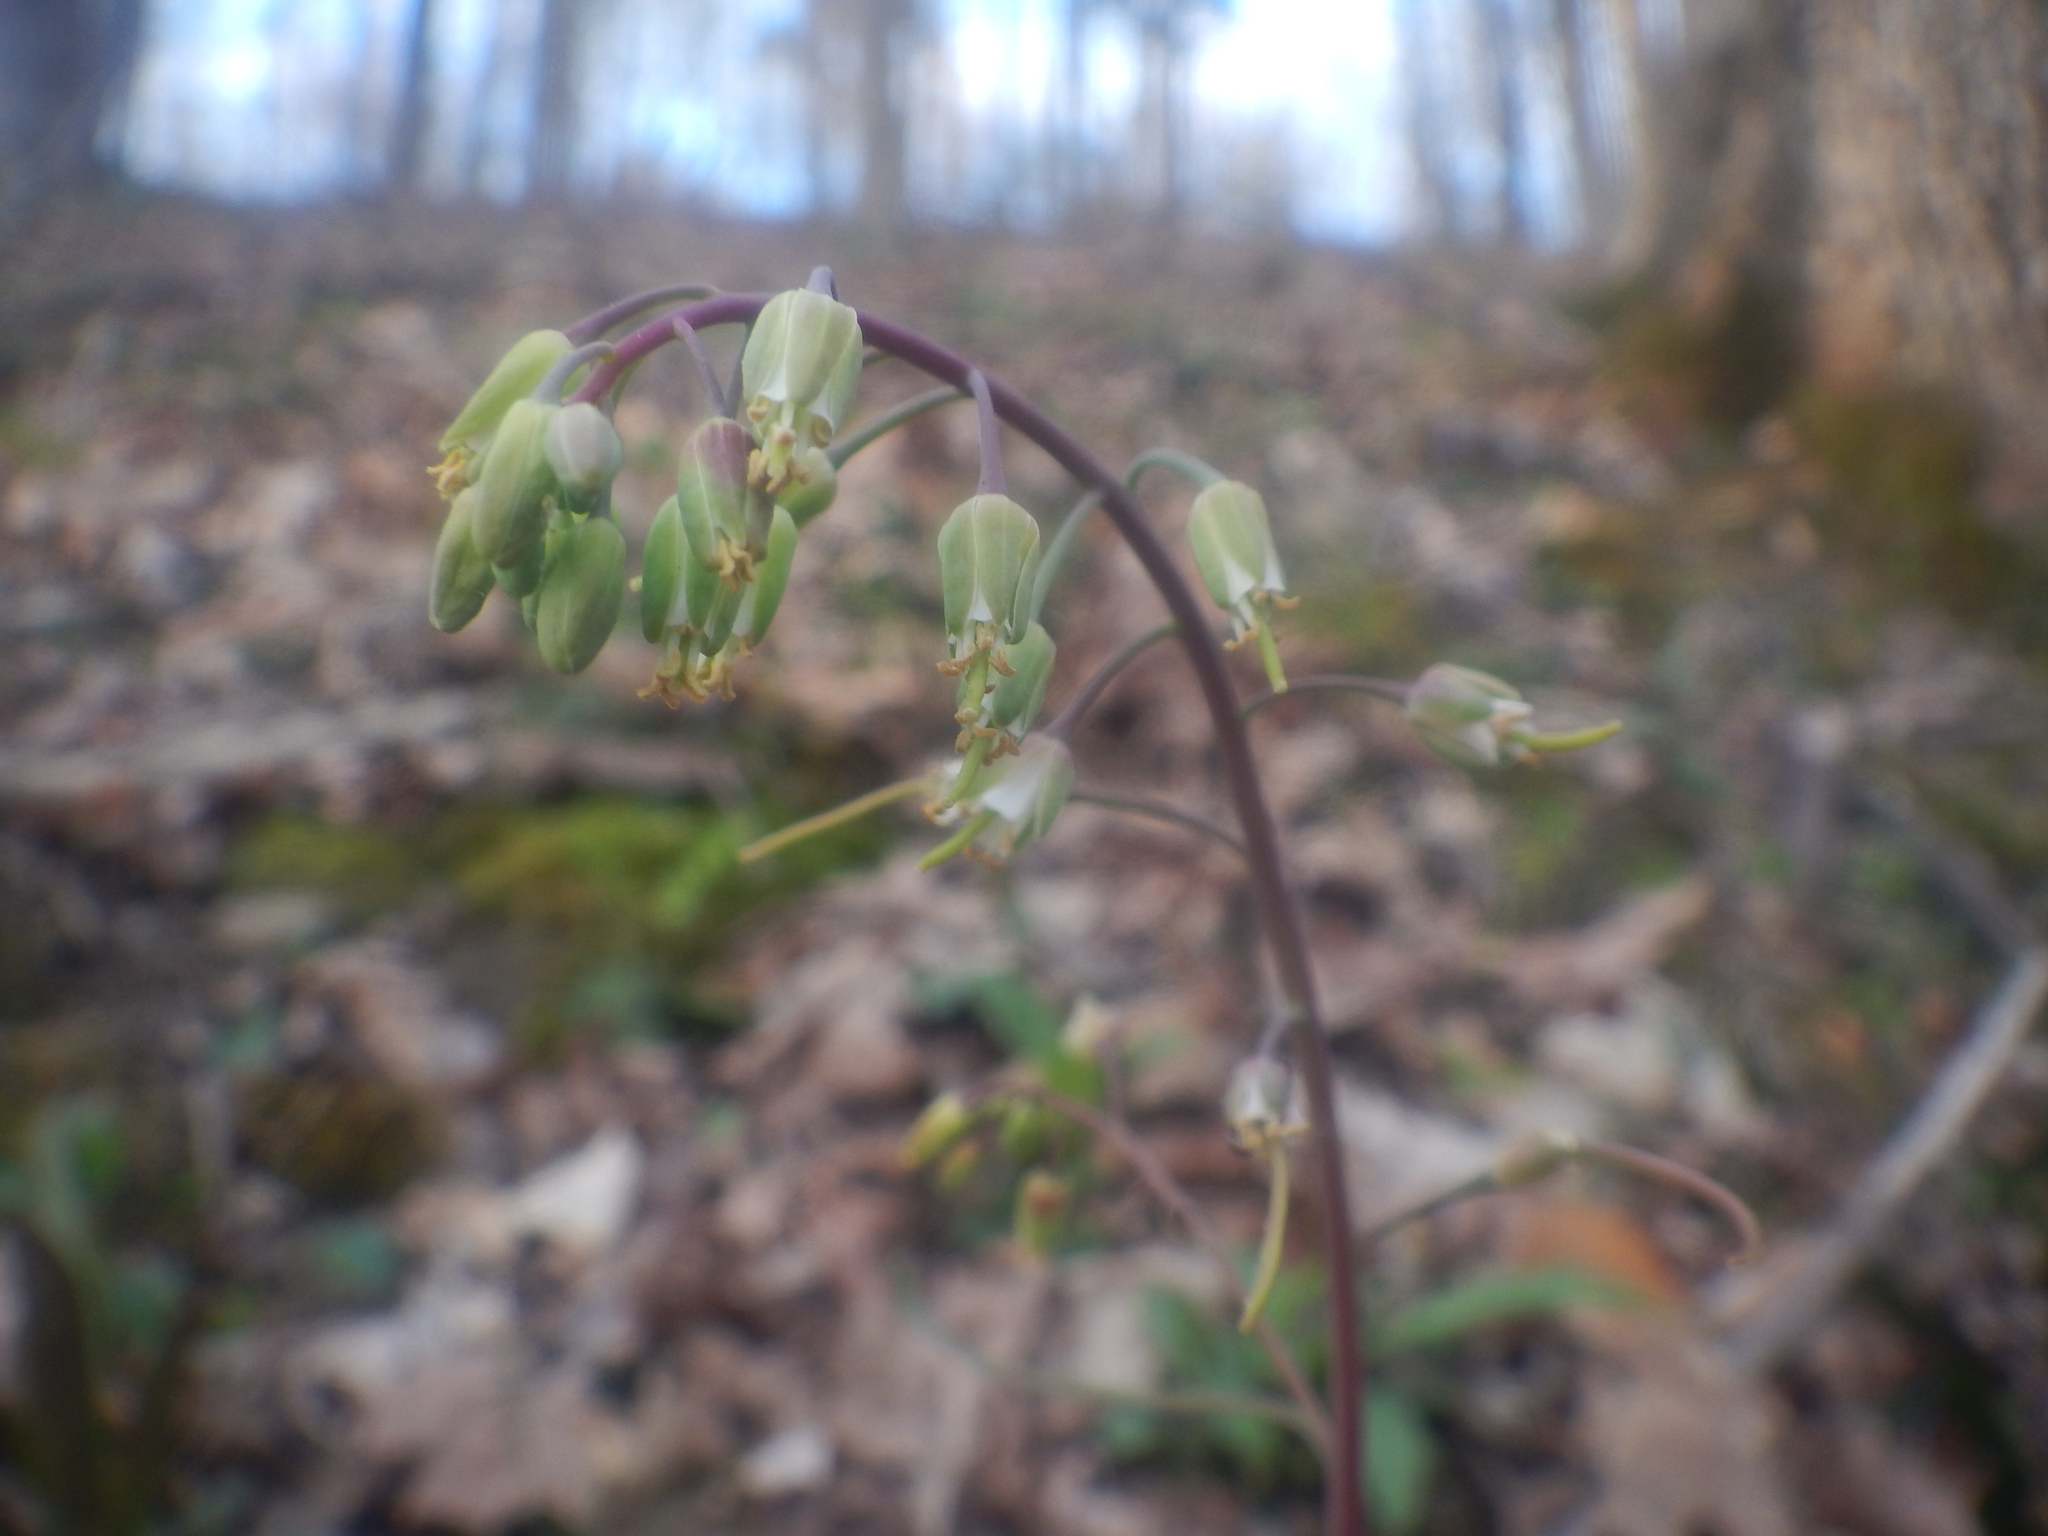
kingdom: Plantae
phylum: Tracheophyta
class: Magnoliopsida
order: Brassicales
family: Brassicaceae
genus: Borodinia
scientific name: Borodinia laevigata
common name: Smooth rockcress
